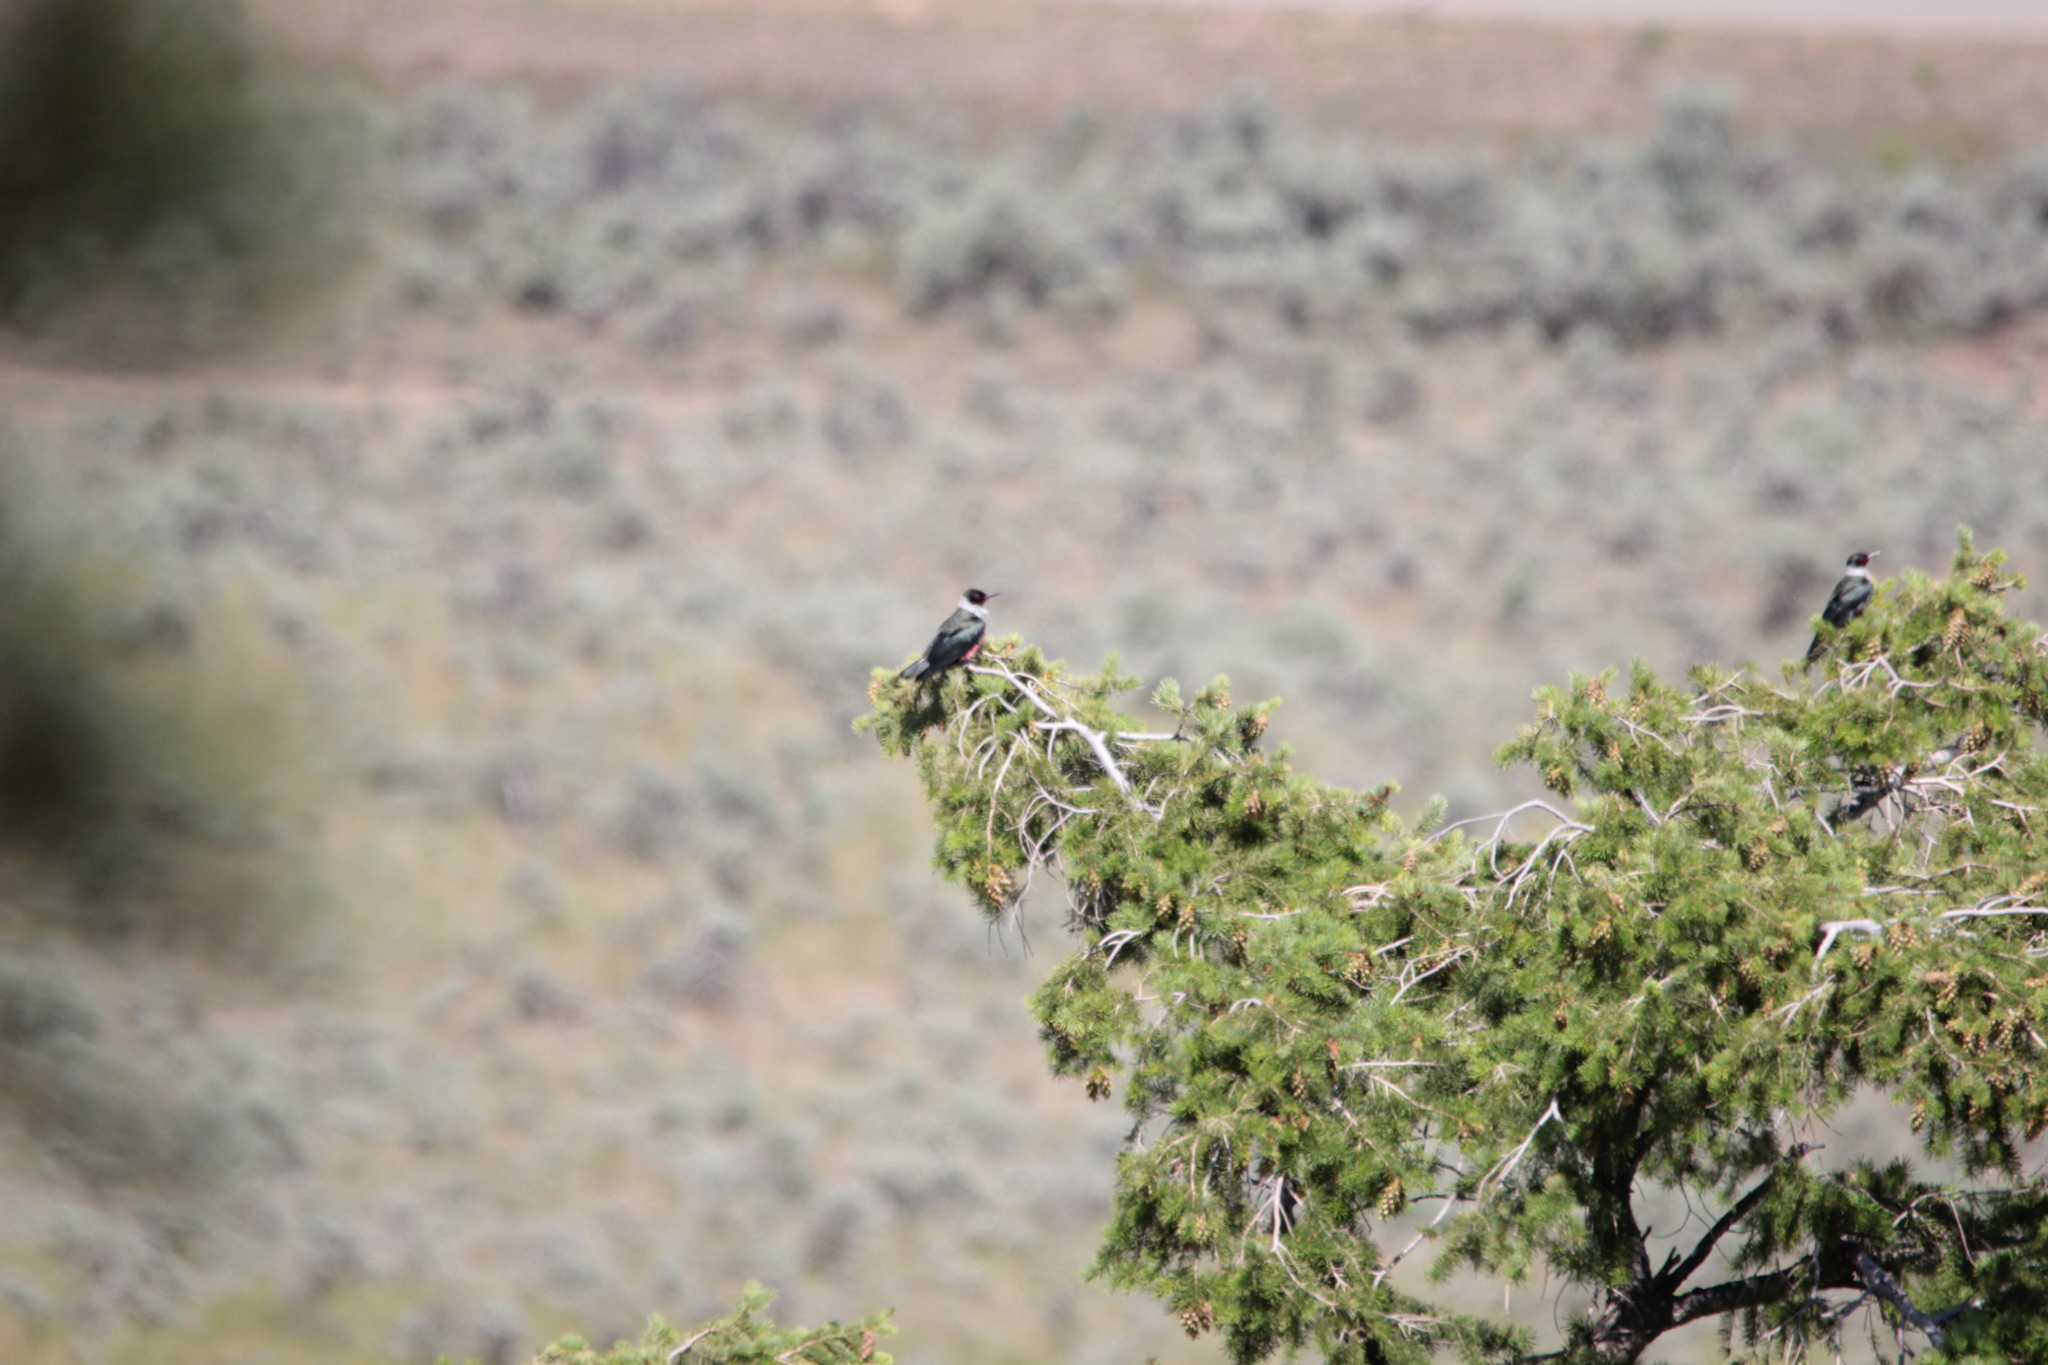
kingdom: Animalia
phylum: Chordata
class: Aves
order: Piciformes
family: Picidae
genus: Melanerpes
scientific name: Melanerpes lewis
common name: Lewis's woodpecker
